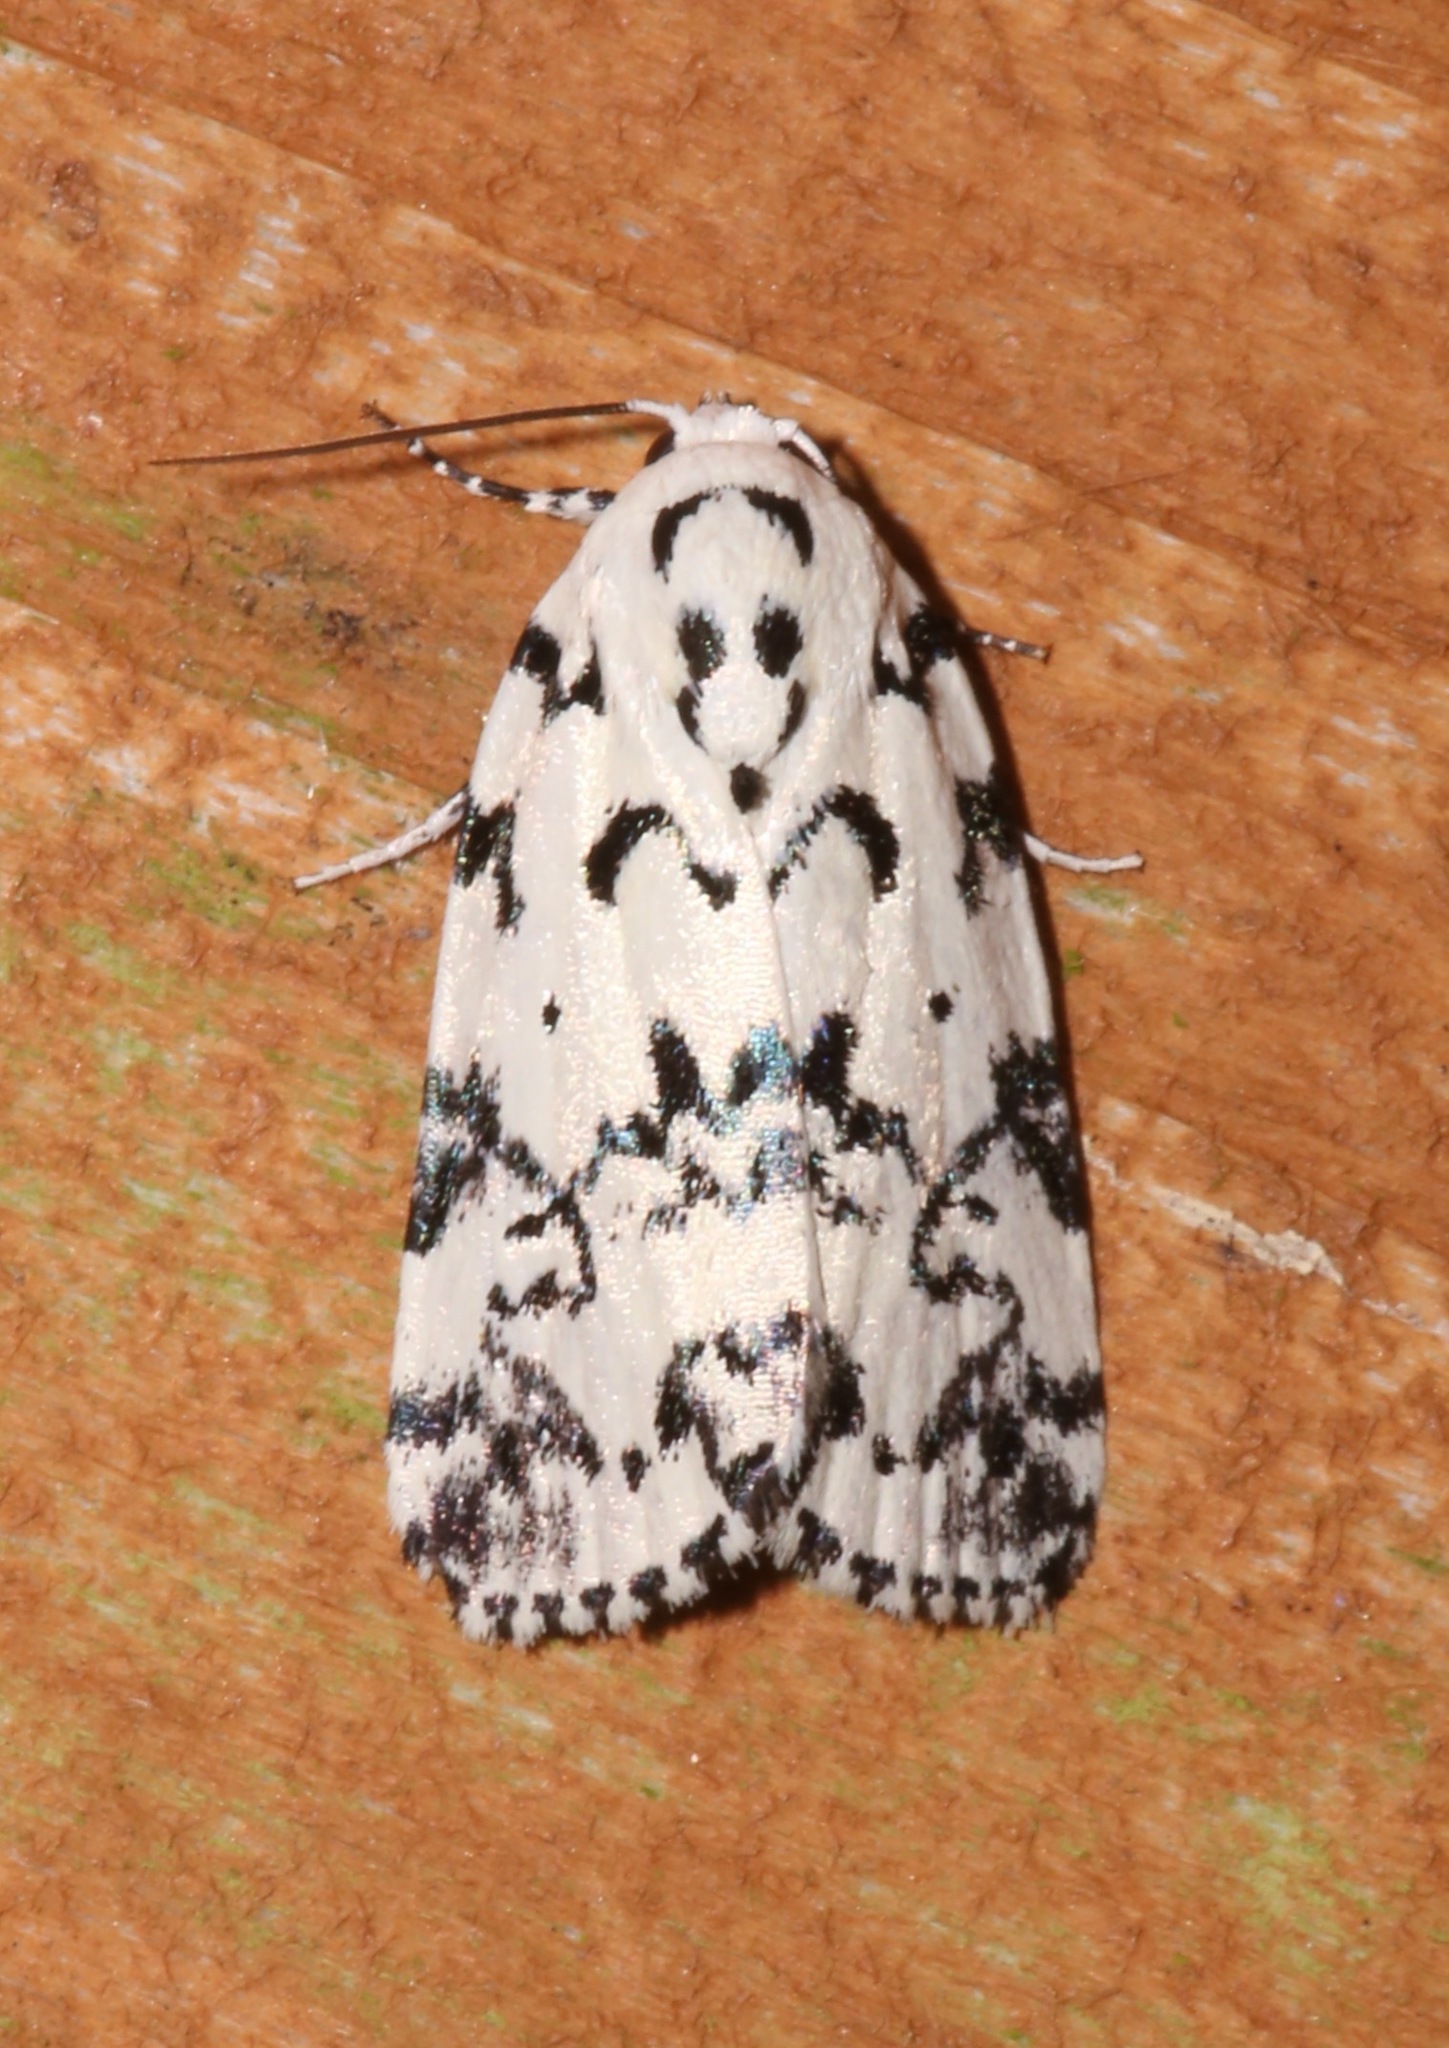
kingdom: Animalia
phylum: Arthropoda
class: Insecta
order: Lepidoptera
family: Noctuidae
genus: Polygrammate
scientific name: Polygrammate hebraeicum
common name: Hebrew moth
